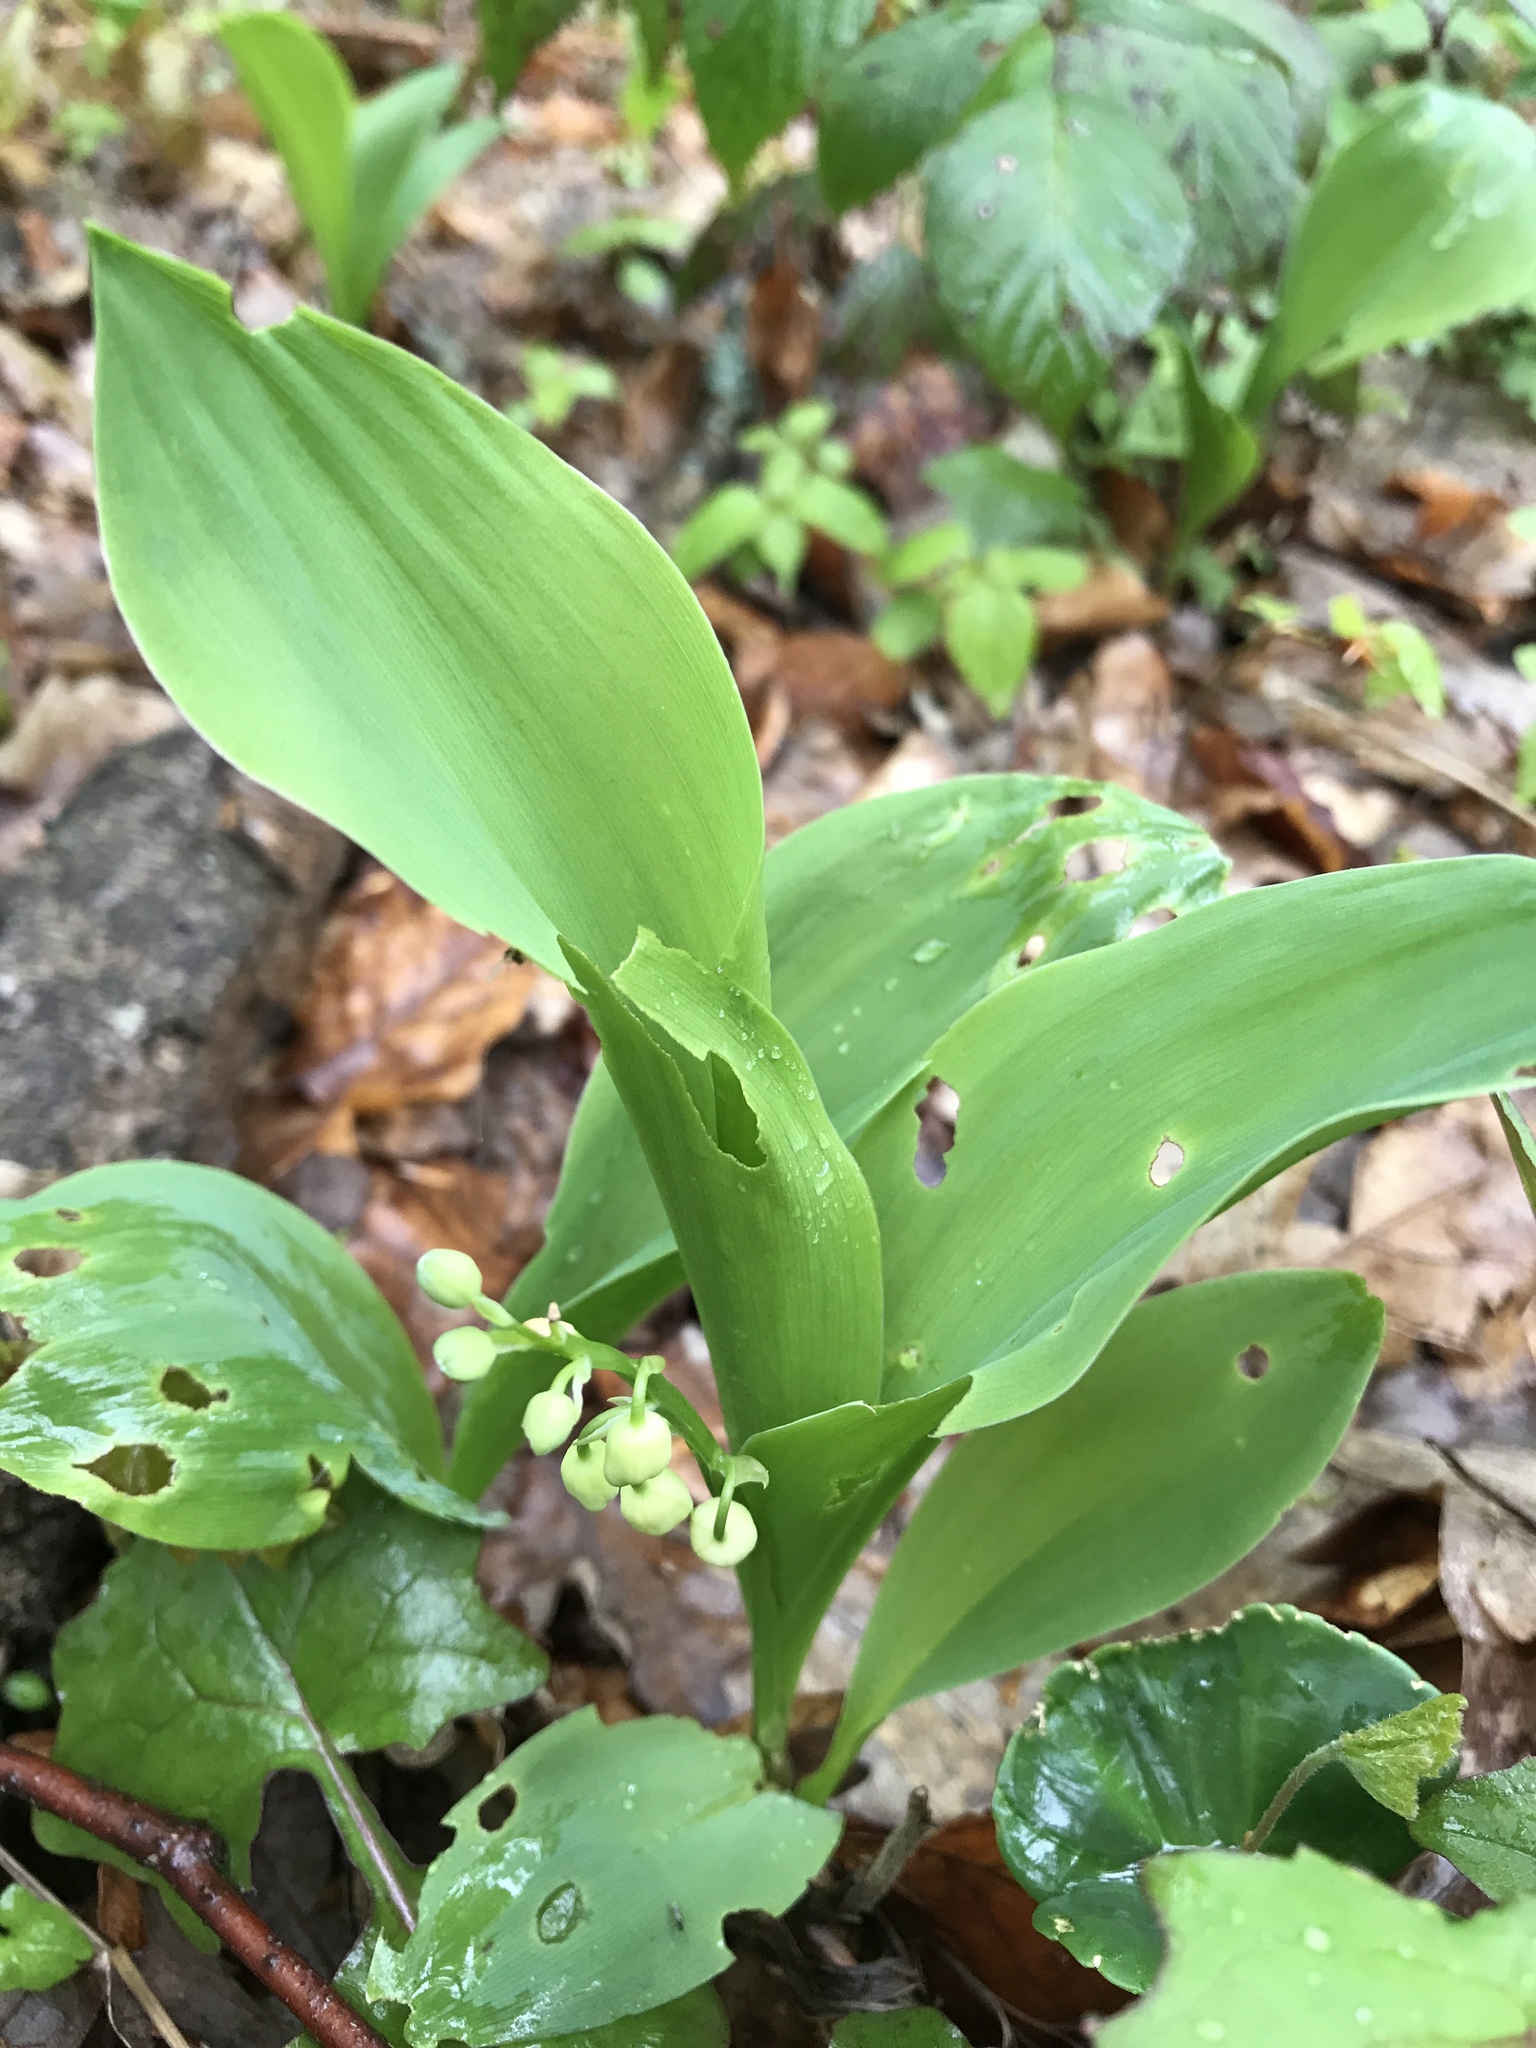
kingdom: Plantae
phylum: Tracheophyta
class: Liliopsida
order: Asparagales
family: Asparagaceae
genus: Convallaria
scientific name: Convallaria majalis
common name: Lily-of-the-valley
